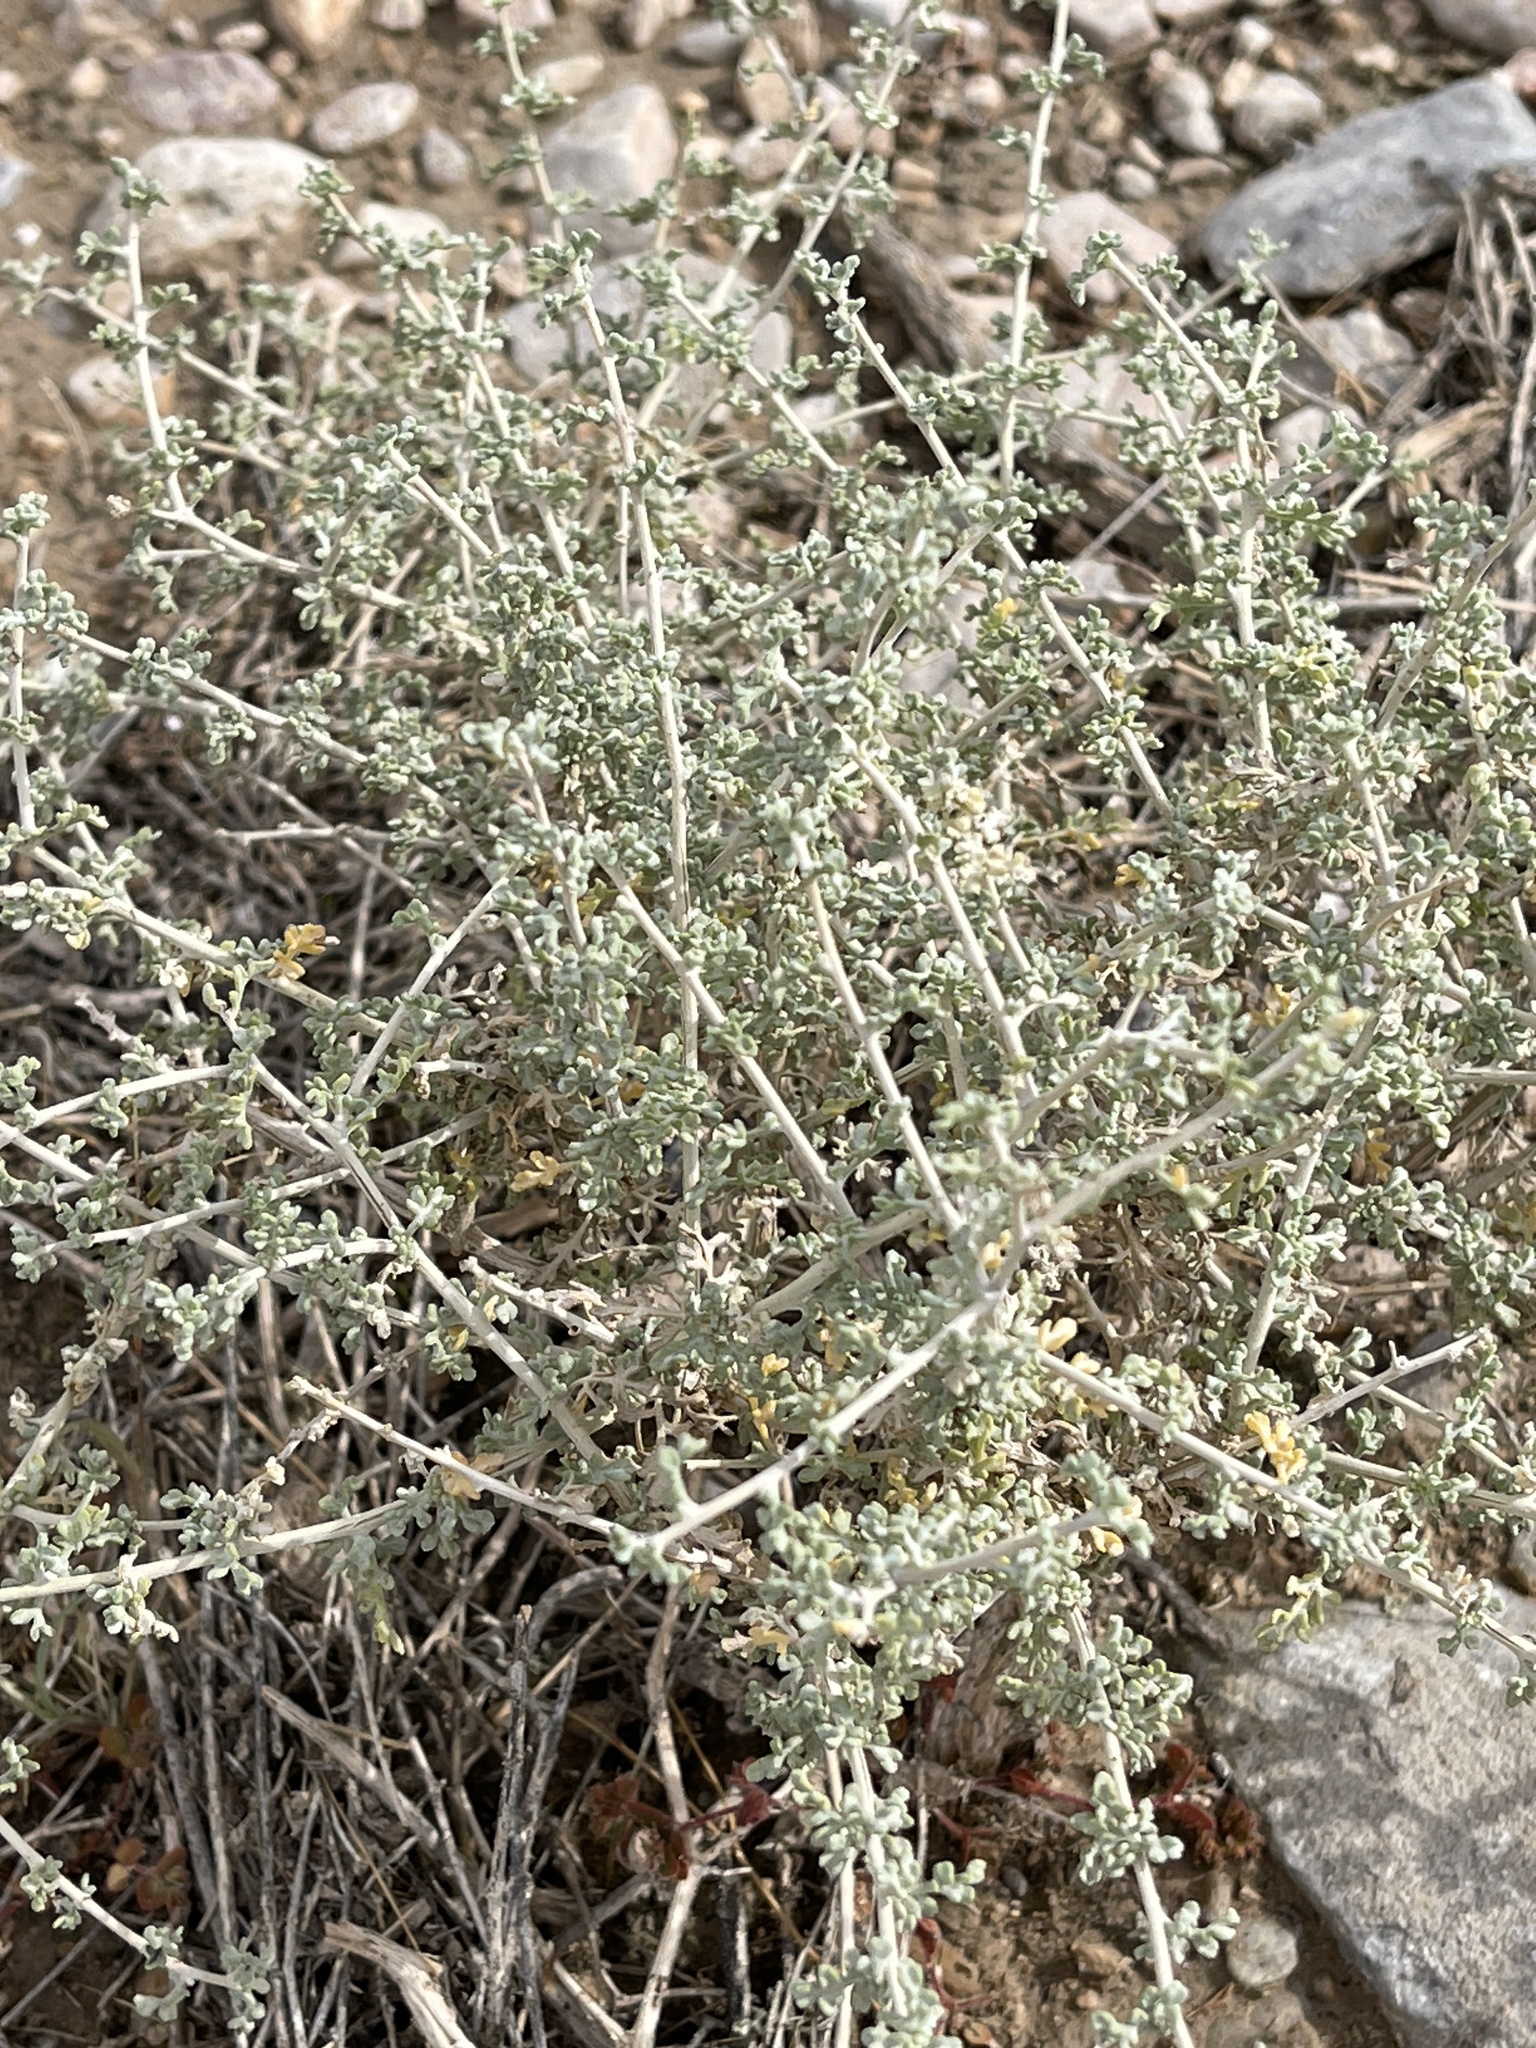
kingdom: Plantae
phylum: Tracheophyta
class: Magnoliopsida
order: Asterales
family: Asteraceae
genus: Ambrosia
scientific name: Ambrosia dumosa
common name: Bur-sage
